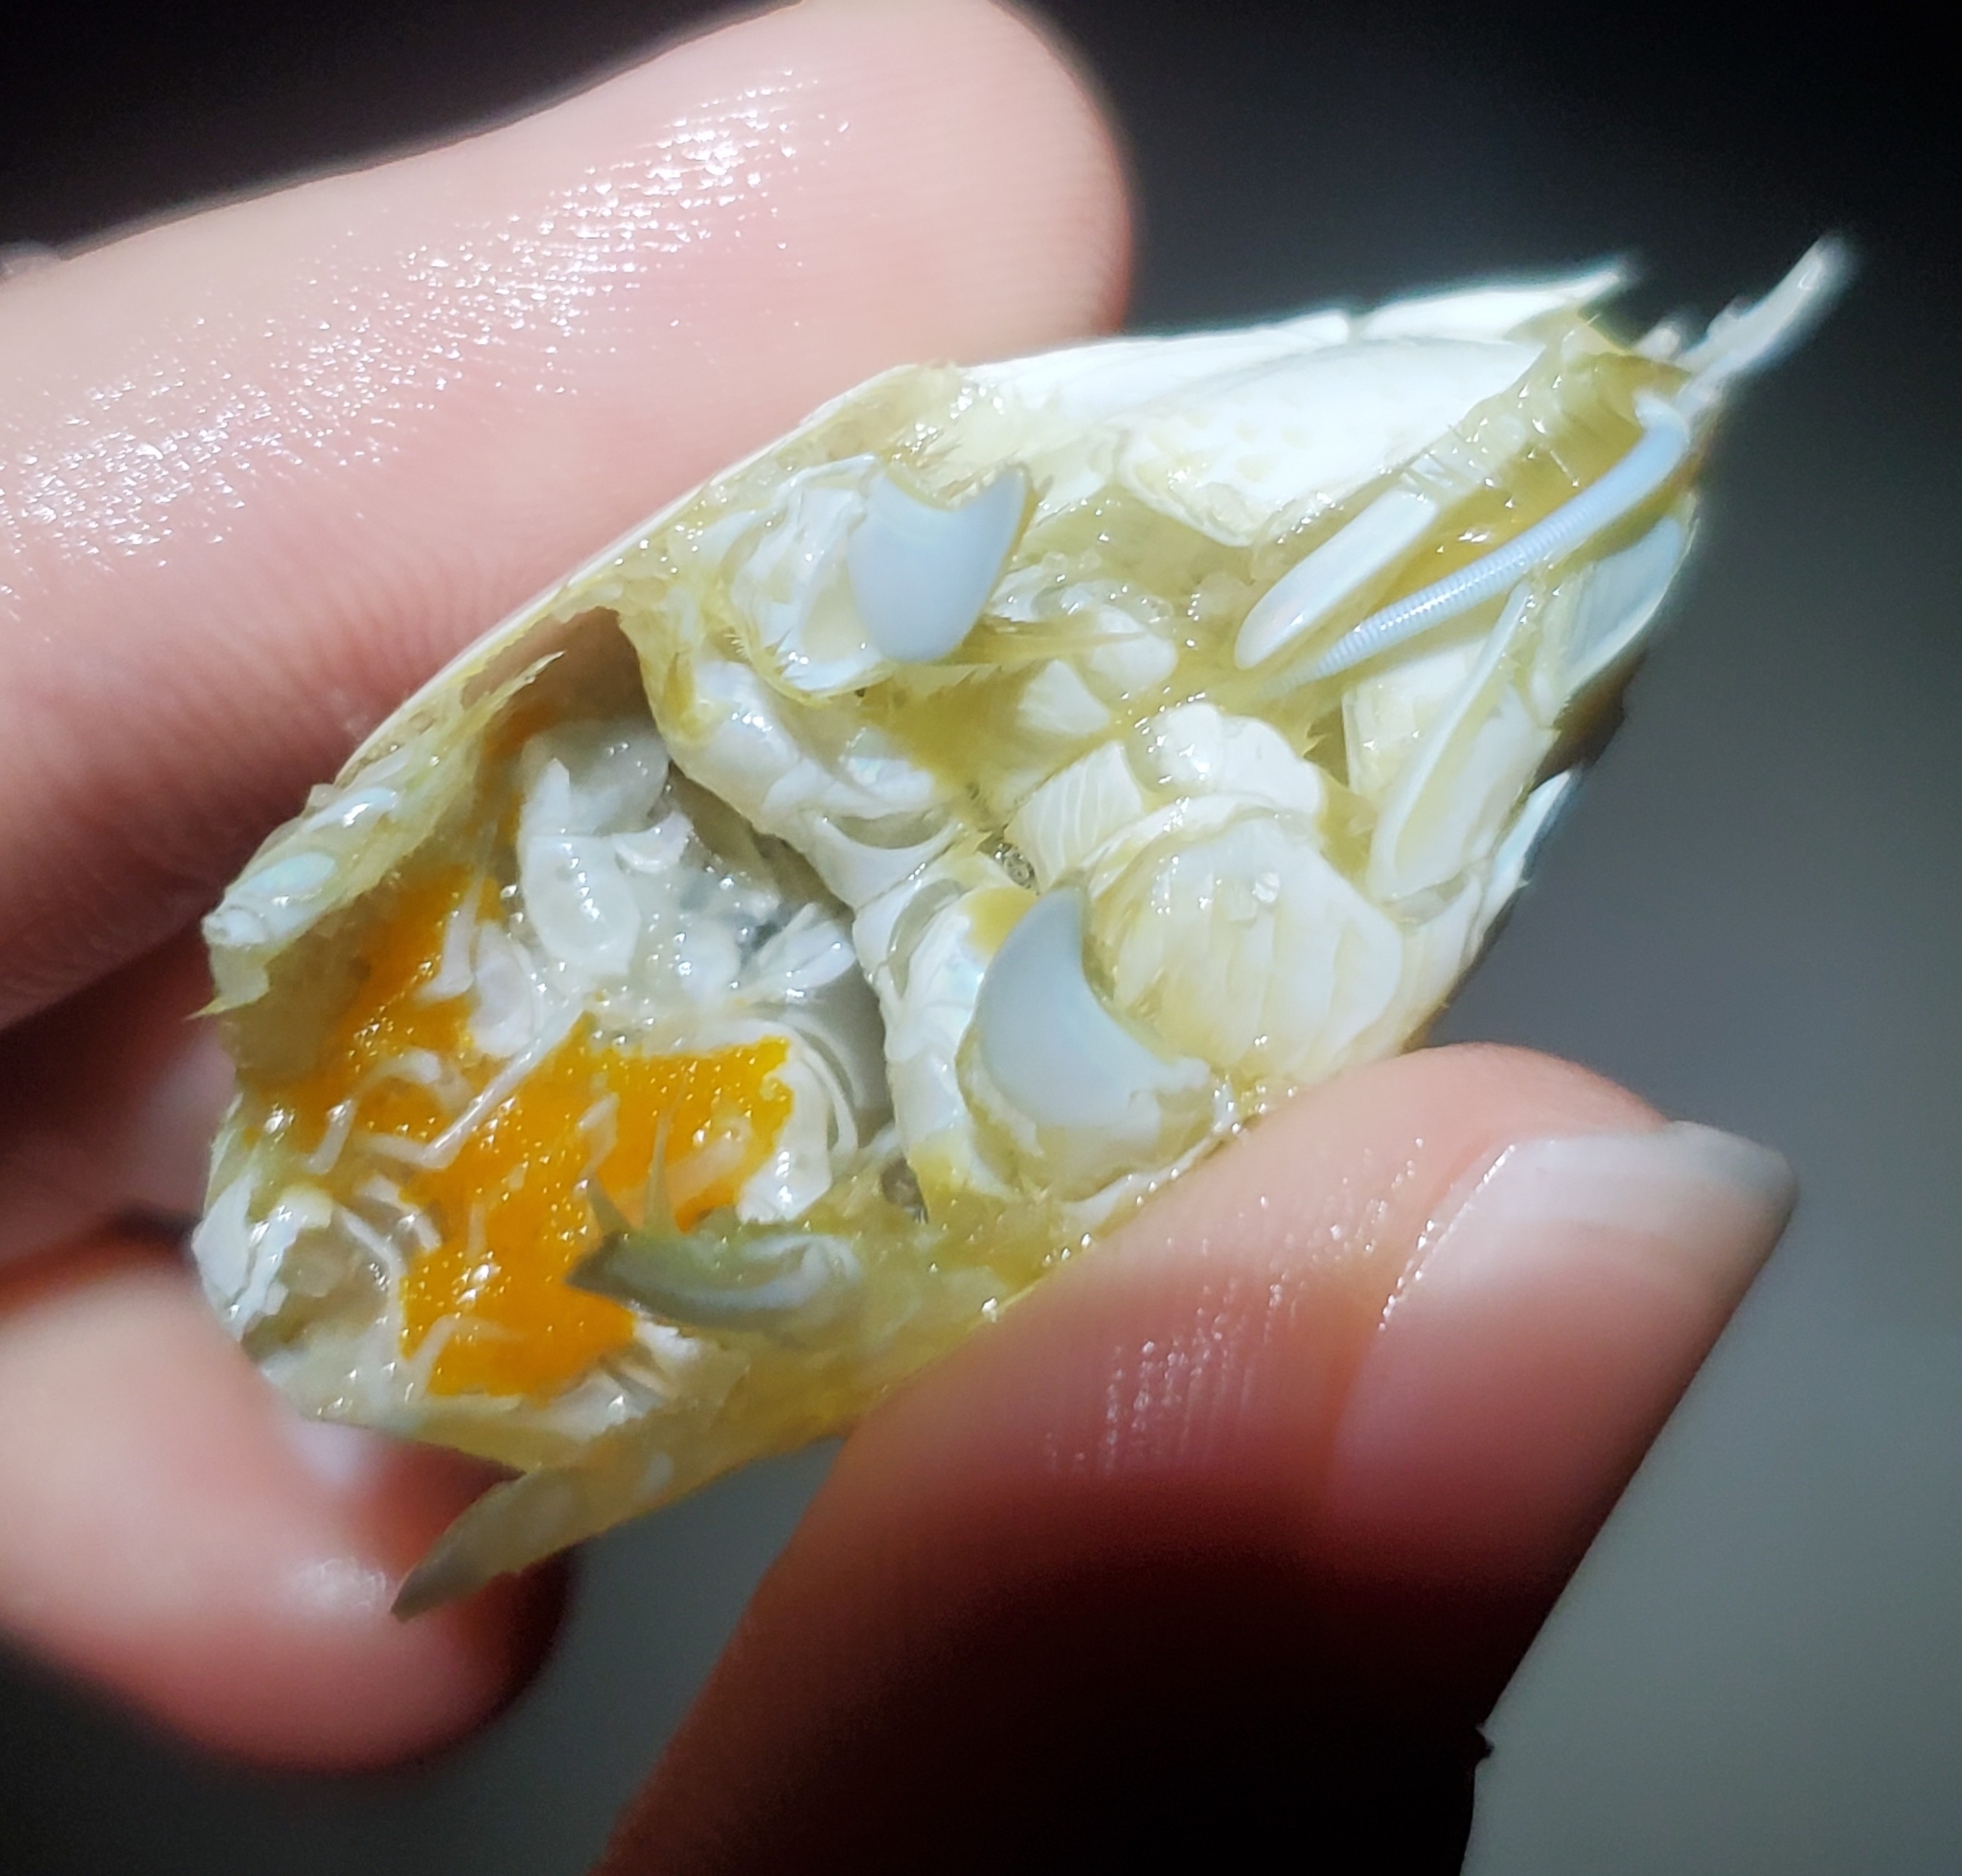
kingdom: Animalia
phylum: Arthropoda
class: Malacostraca
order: Decapoda
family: Hippidae
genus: Emerita
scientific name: Emerita talpoida
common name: Atlantic sand crab
